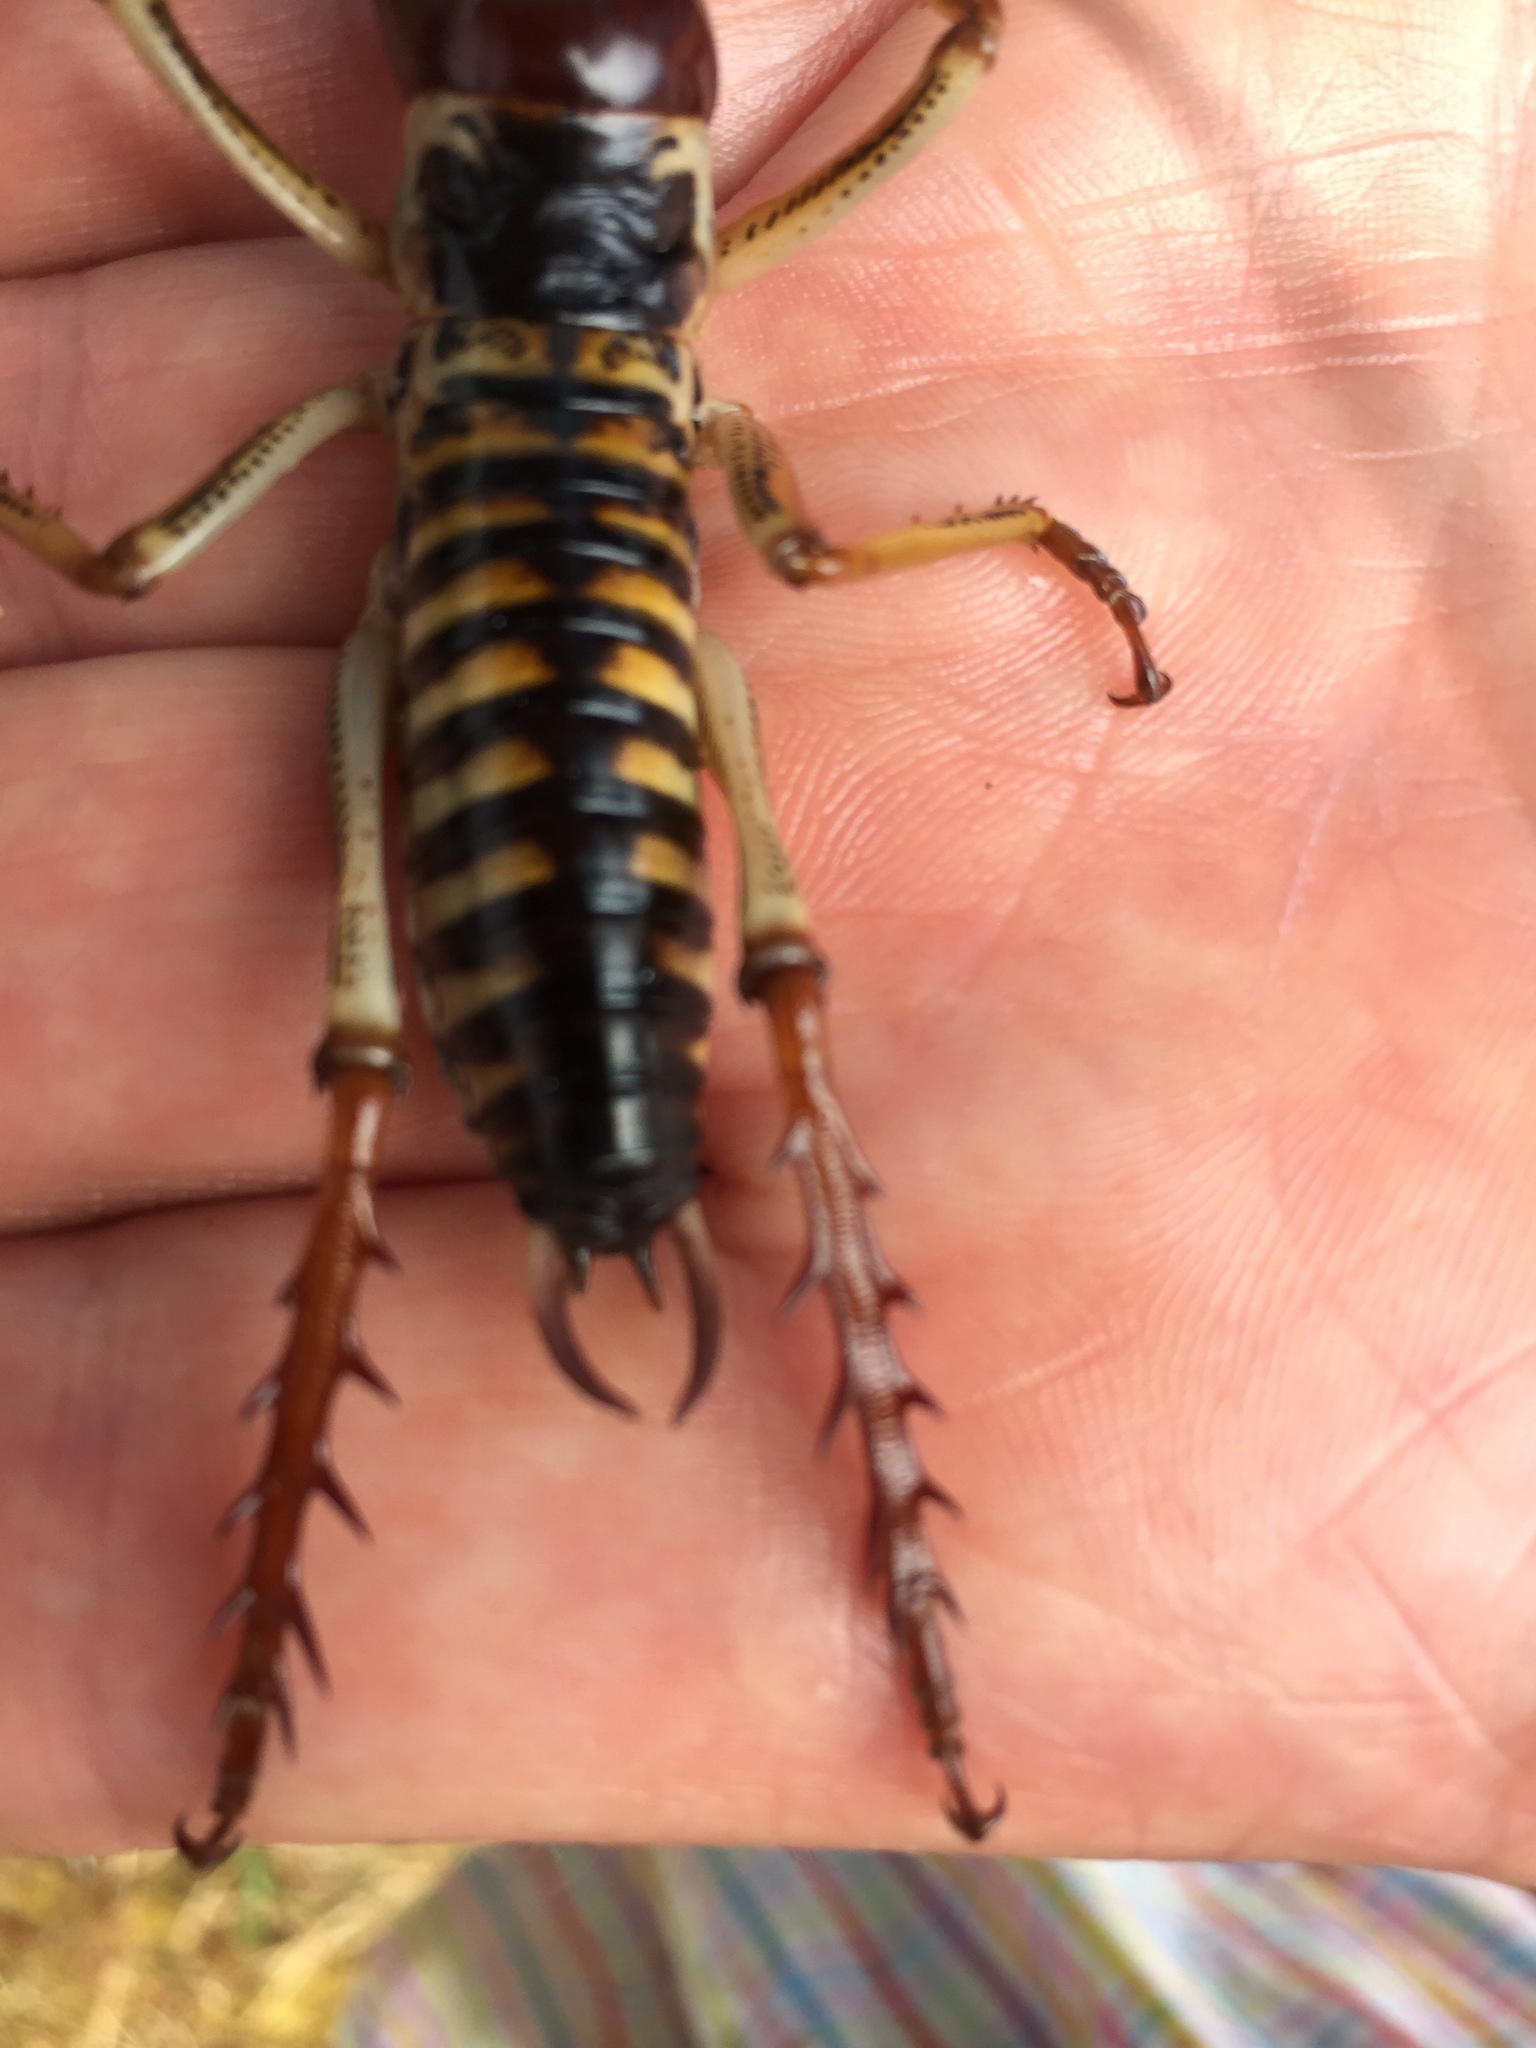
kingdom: Animalia
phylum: Arthropoda
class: Insecta
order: Orthoptera
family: Anostostomatidae
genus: Hemideina
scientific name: Hemideina crassidens
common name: Wellington tree weta
